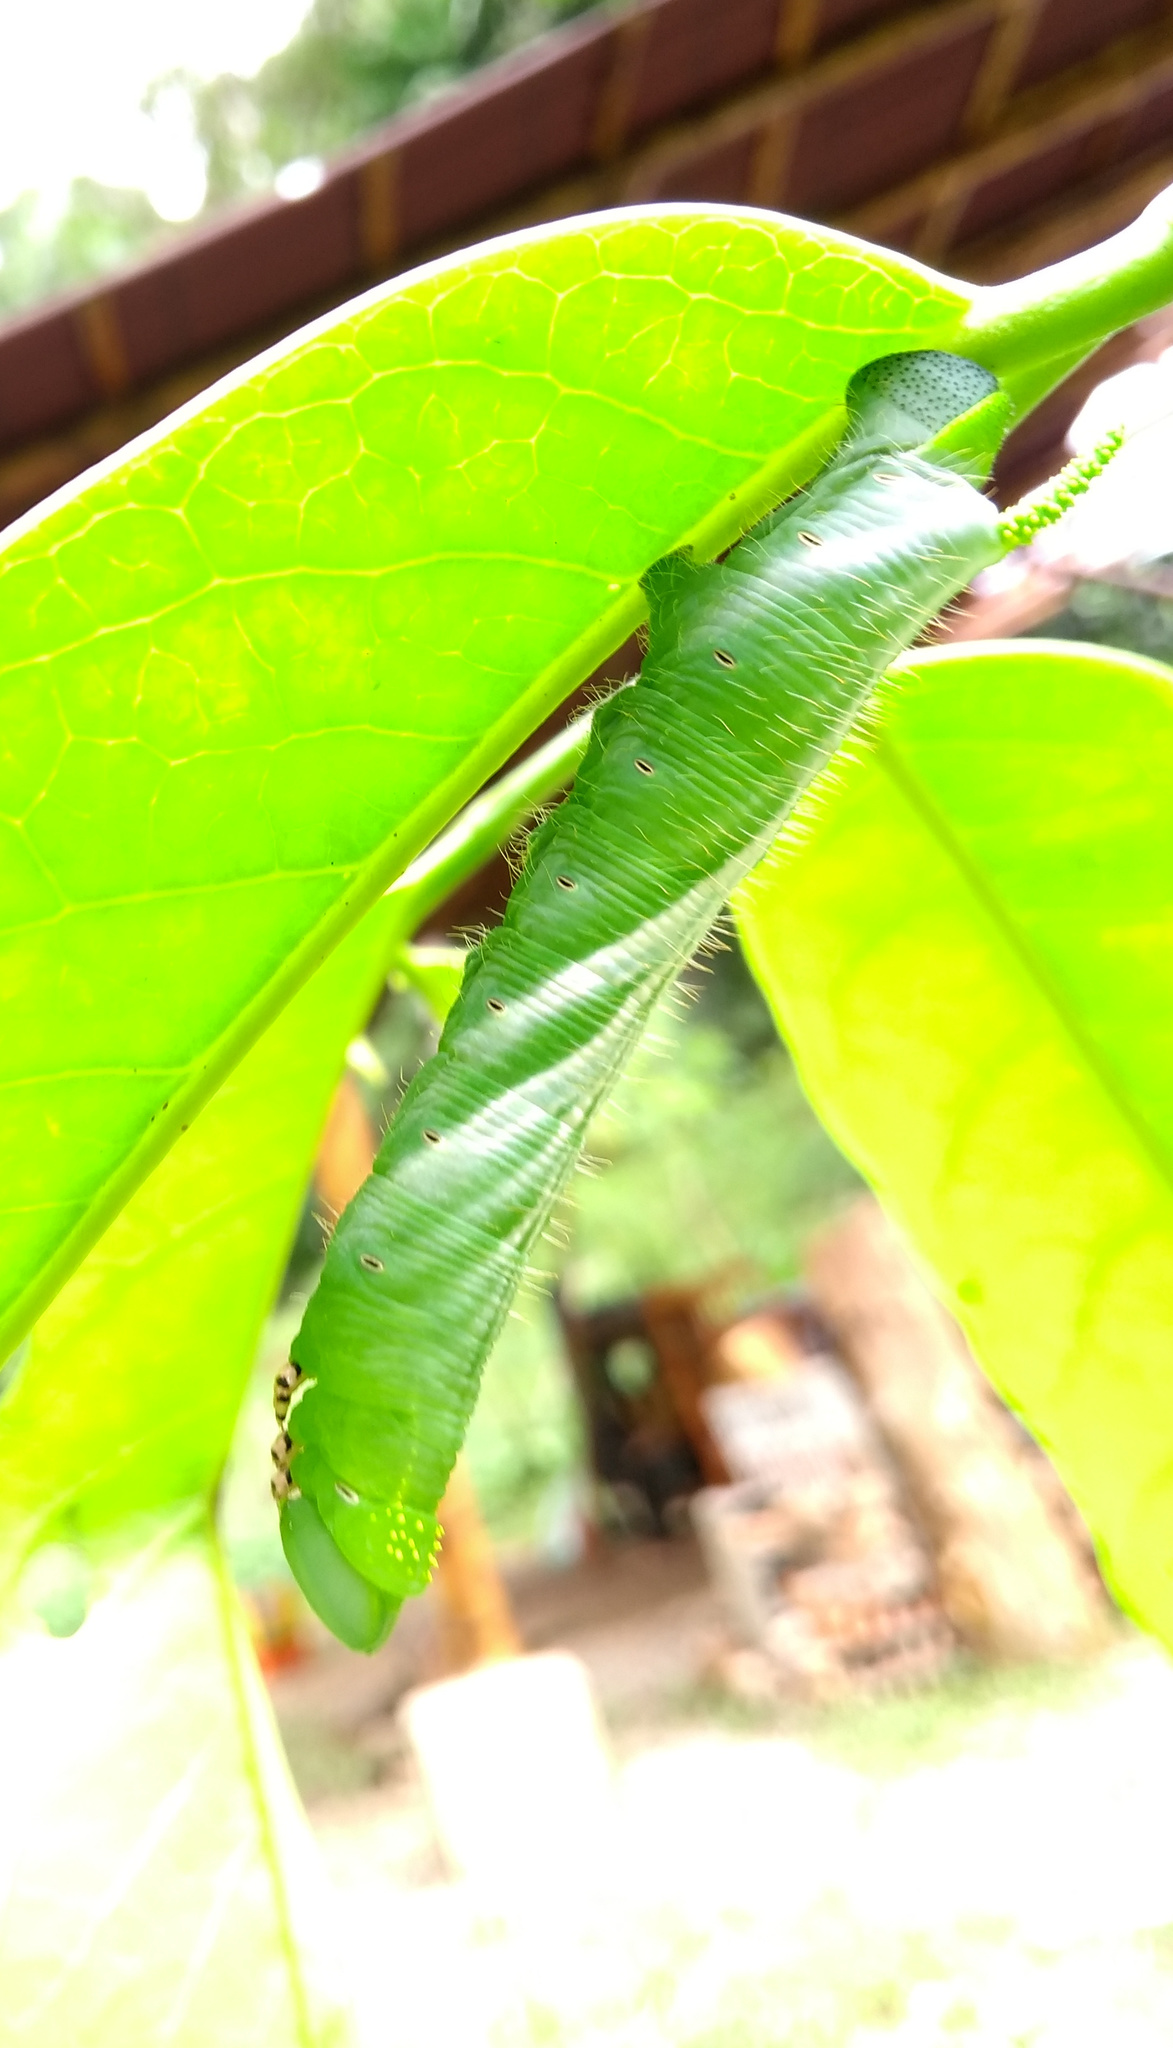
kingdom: Animalia
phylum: Arthropoda
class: Insecta
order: Lepidoptera
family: Sphingidae
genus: Neococytius
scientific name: Neococytius cluentius
